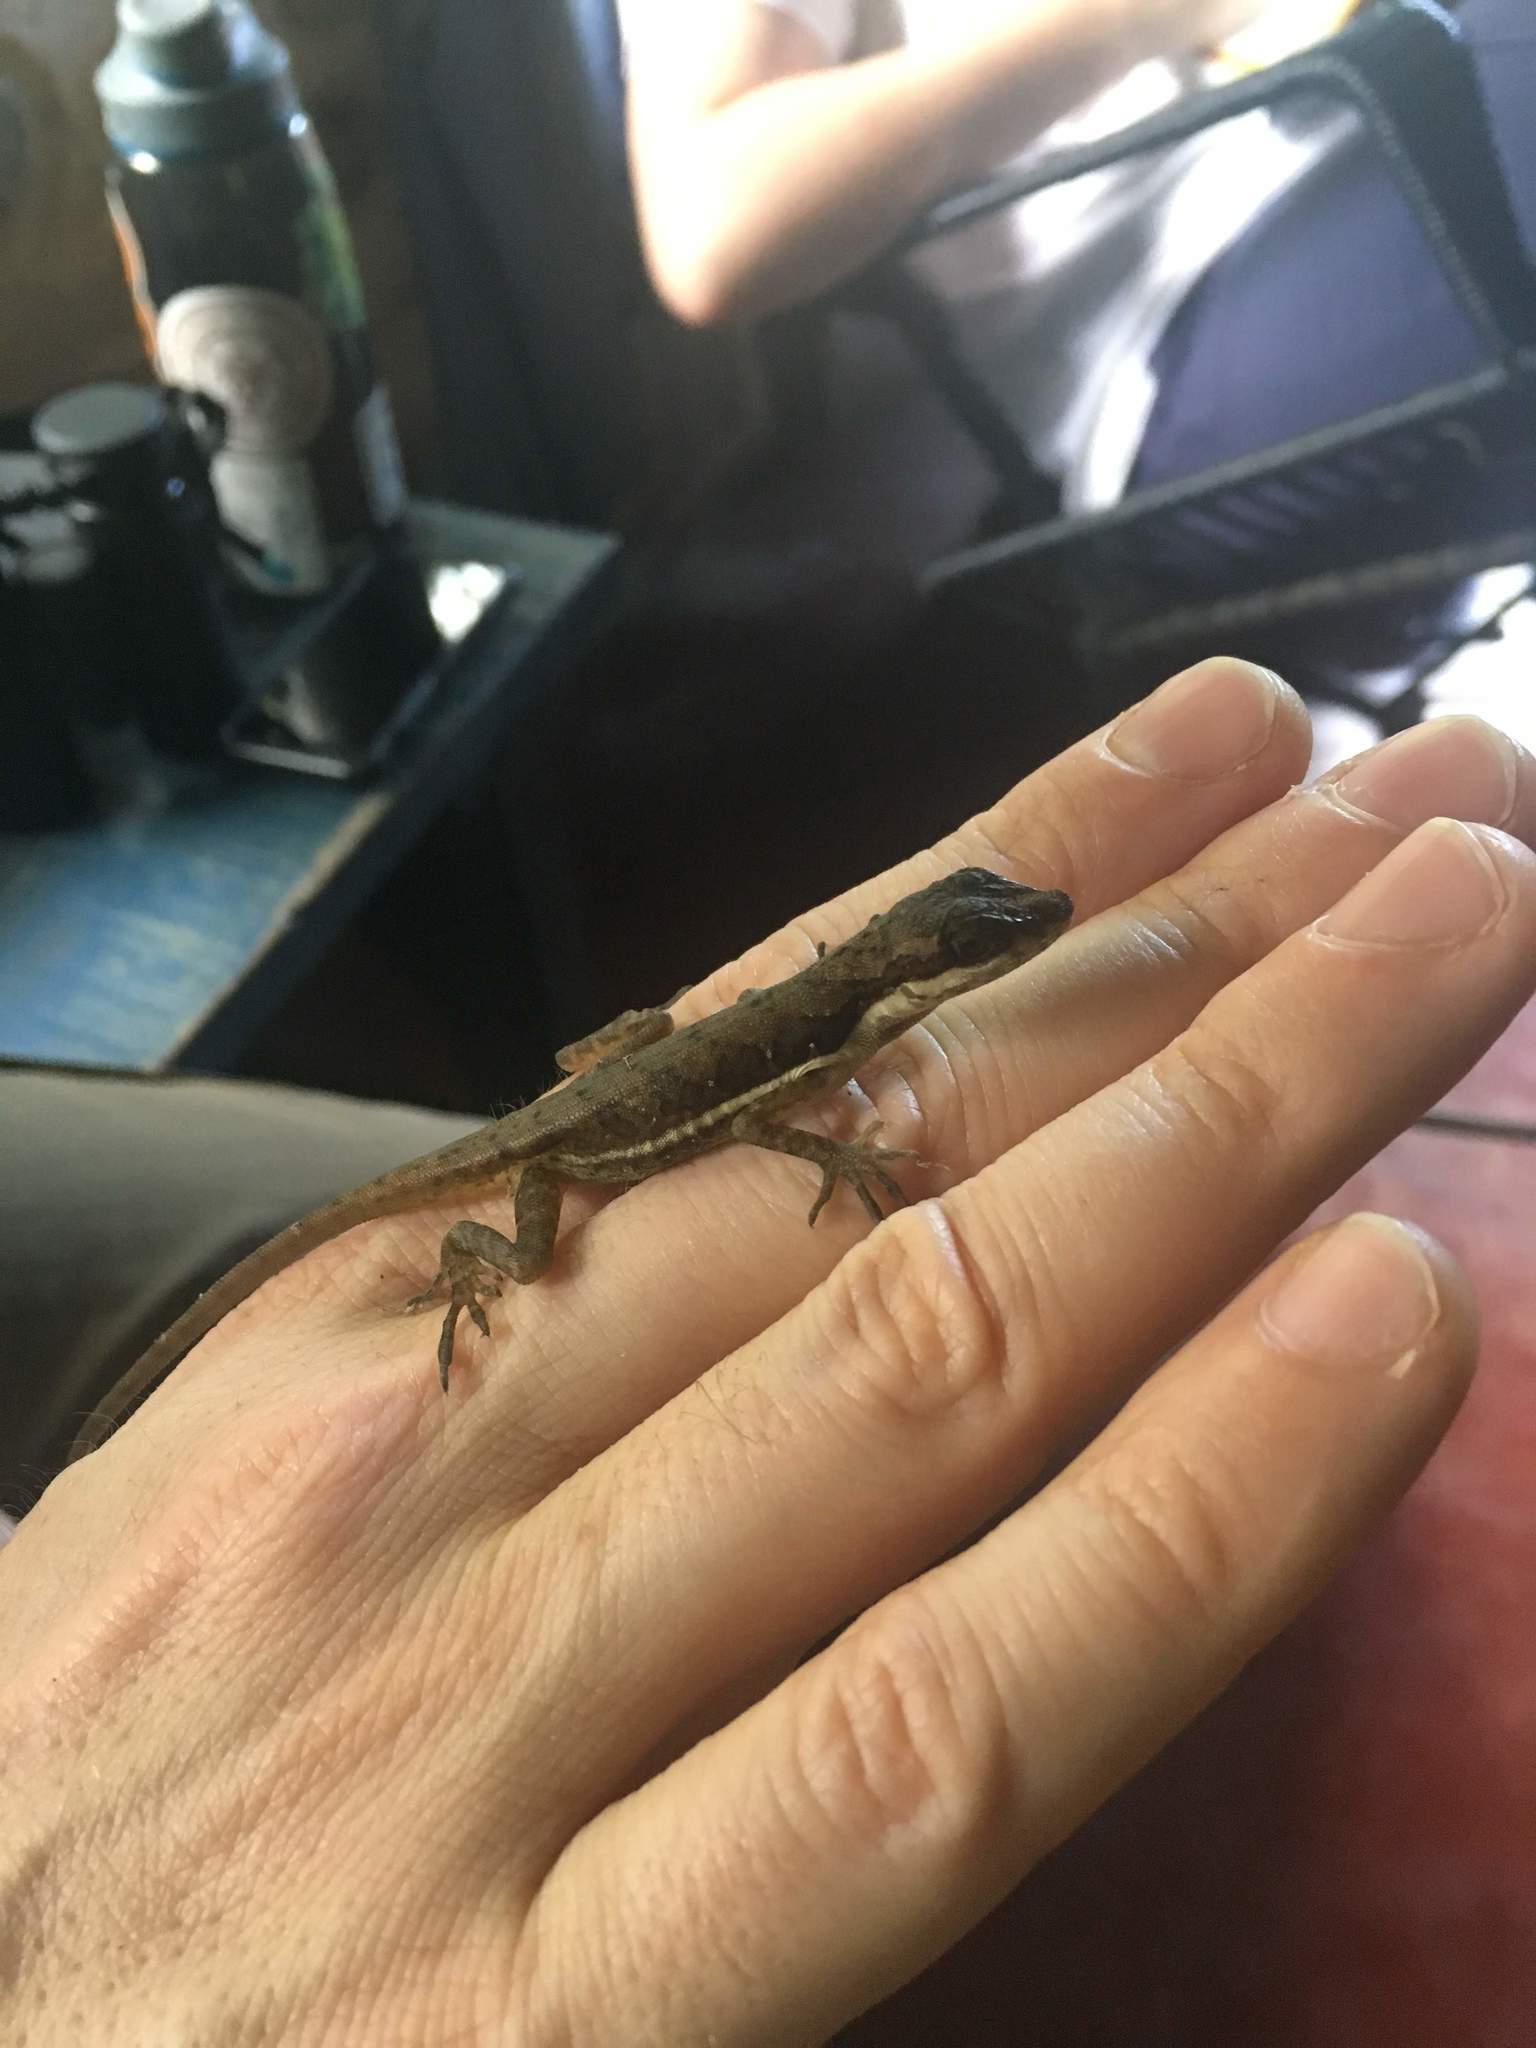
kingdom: Animalia
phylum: Chordata
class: Squamata
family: Dactyloidae
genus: Anolis
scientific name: Anolis limifrons
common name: Border anole
